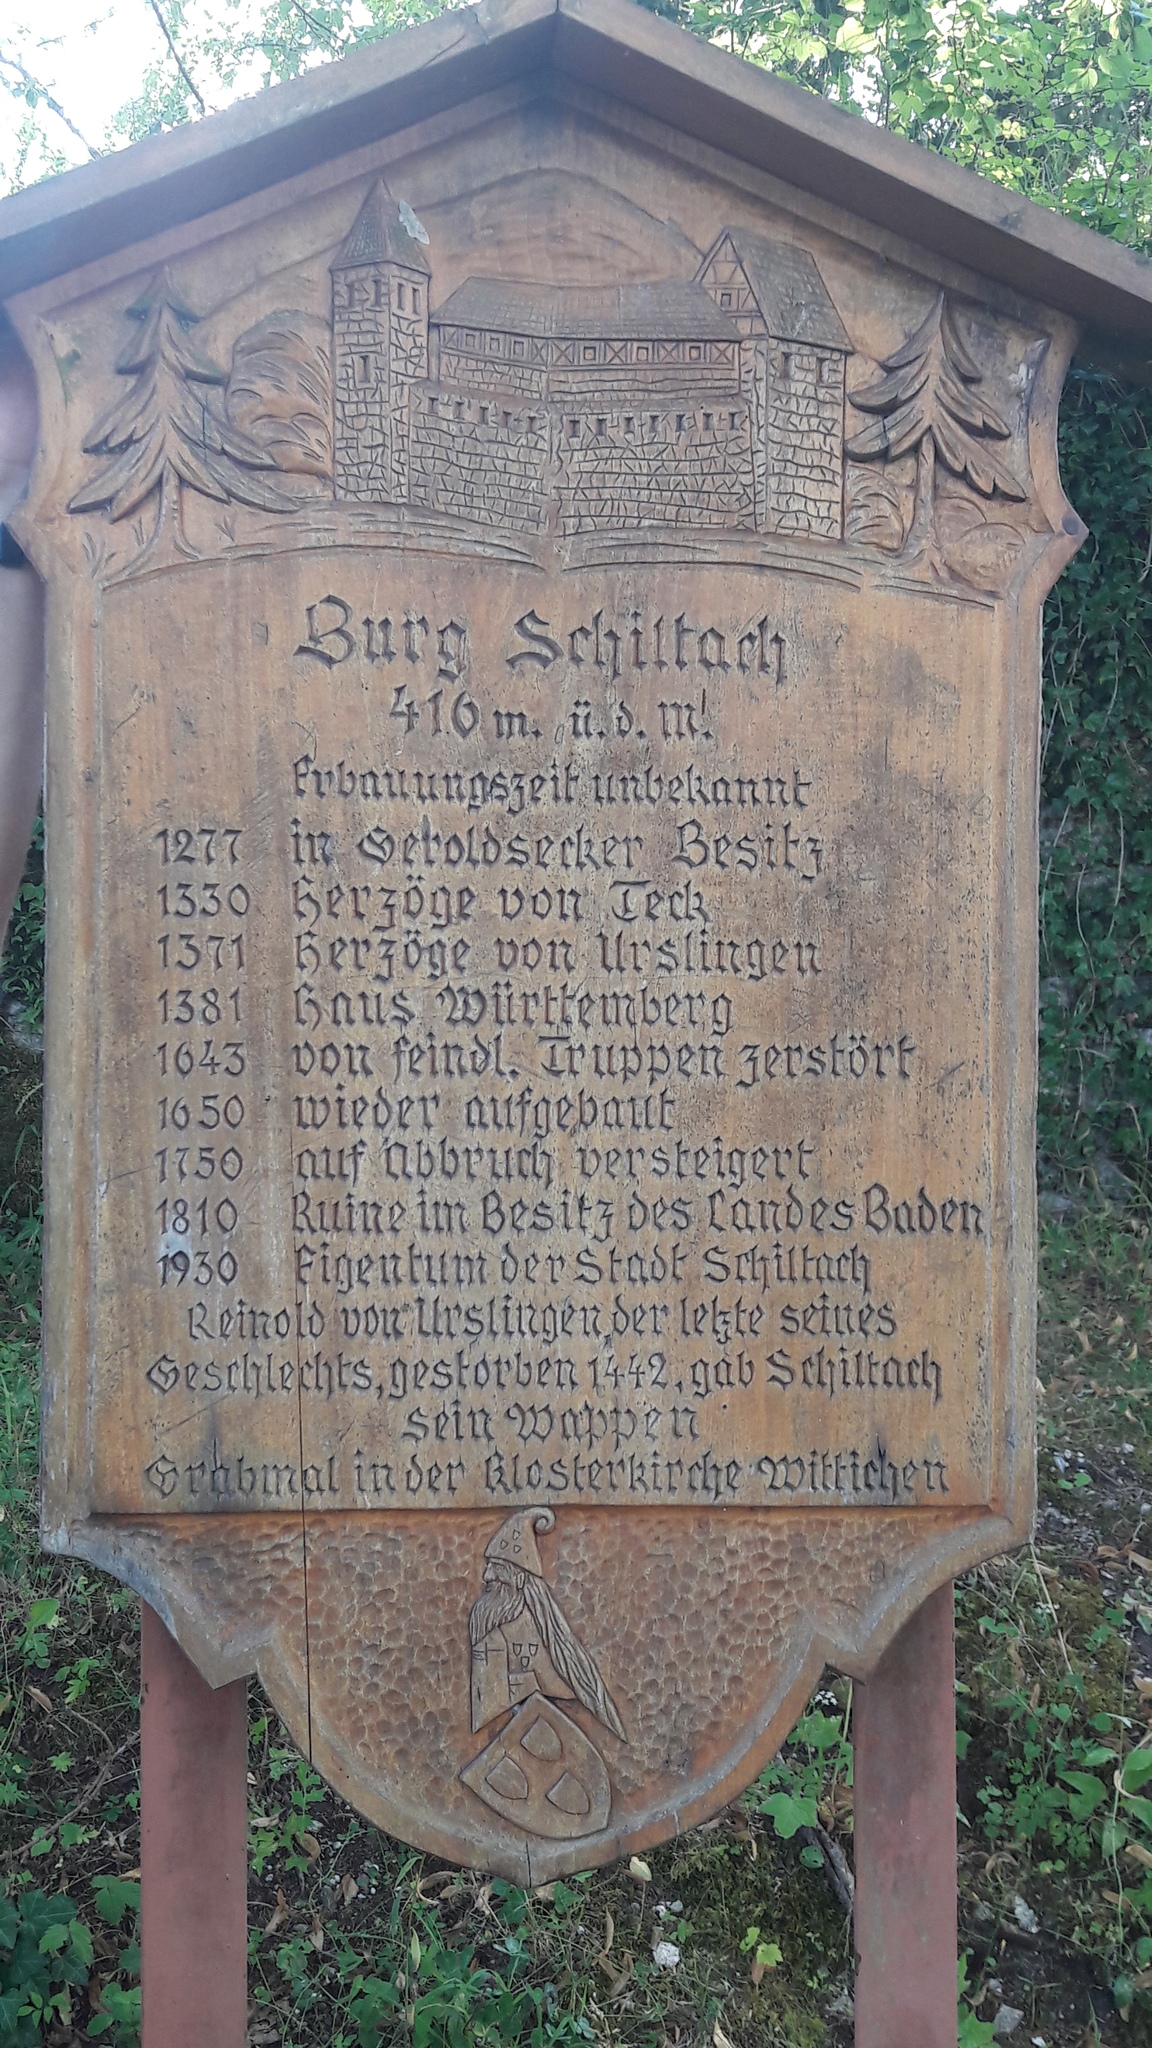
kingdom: Animalia
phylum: Arthropoda
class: Insecta
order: Hymenoptera
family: Eumenidae
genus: Polistes
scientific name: Polistes
